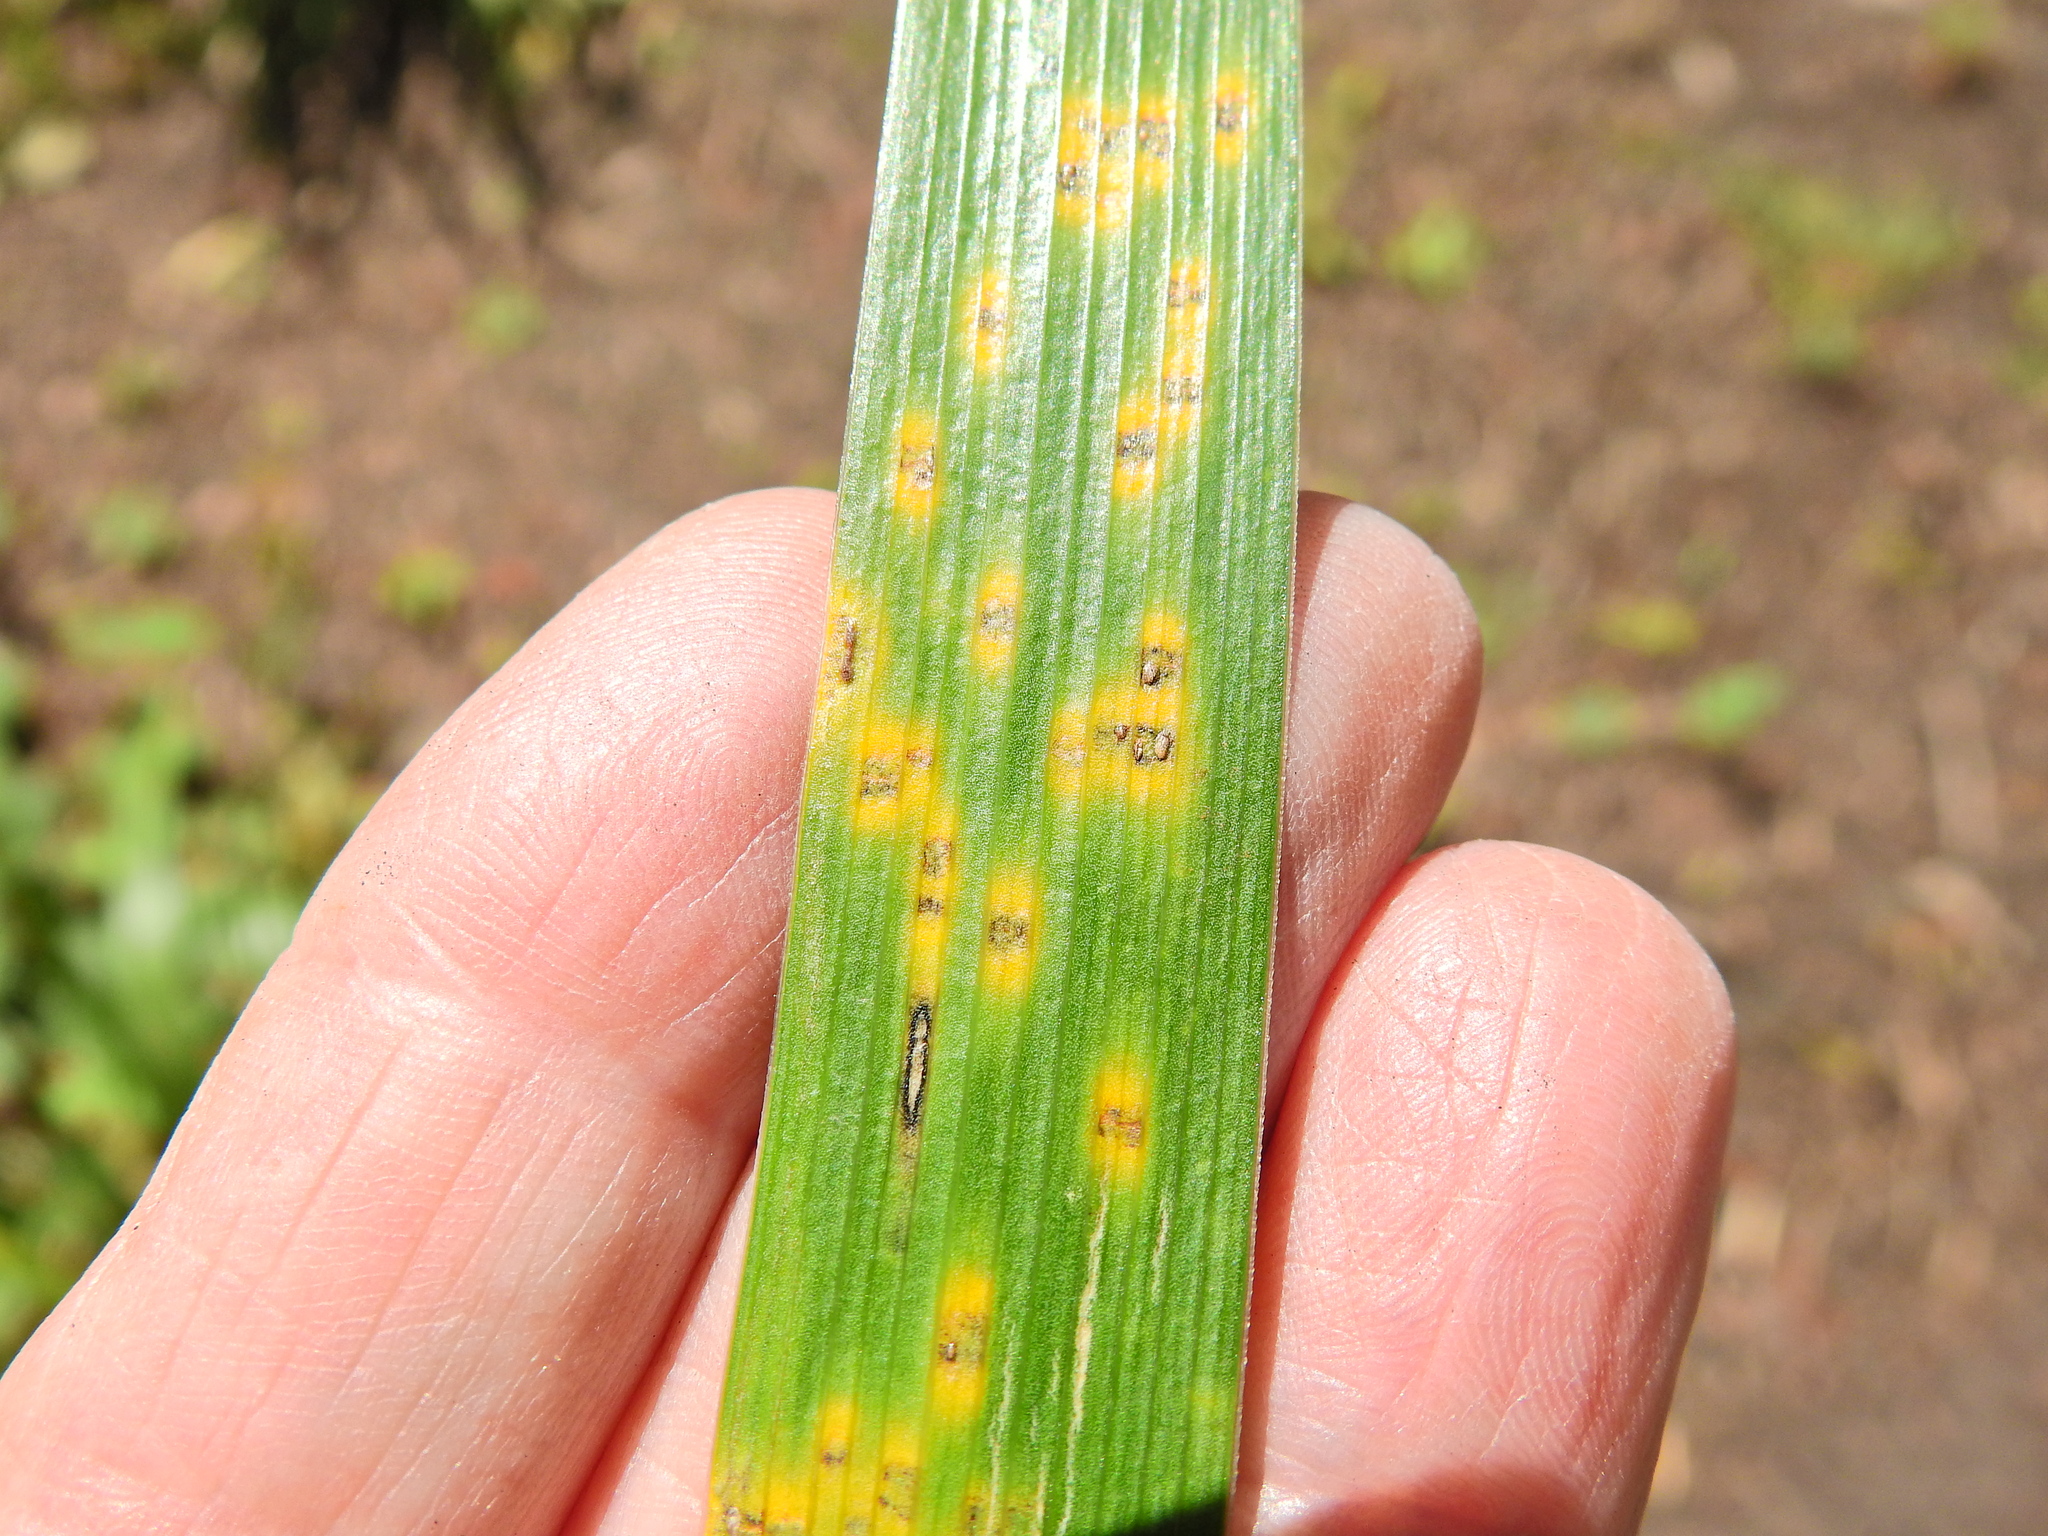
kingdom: Fungi
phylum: Basidiomycota
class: Pucciniomycetes
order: Pucciniales
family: Pucciniaceae
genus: Puccinia
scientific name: Puccinia iridis
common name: Iris rust
